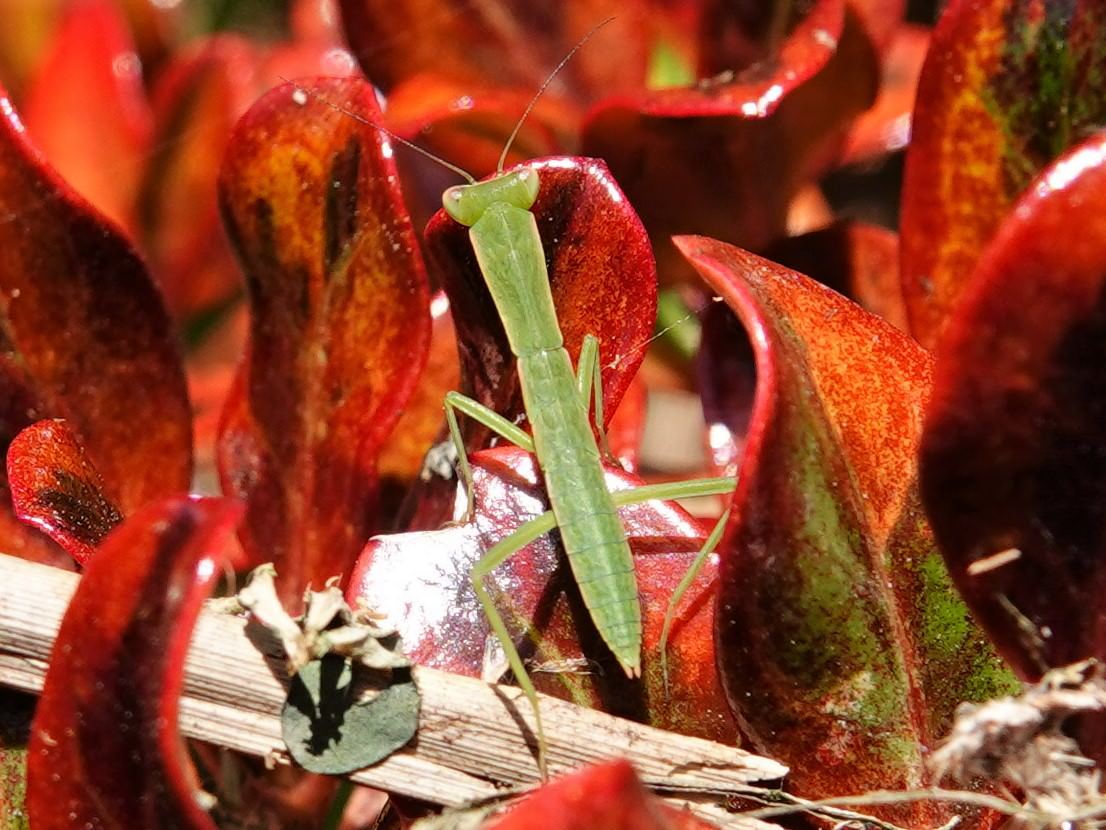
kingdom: Animalia
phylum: Arthropoda
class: Insecta
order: Mantodea
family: Mantidae
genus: Orthodera
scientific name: Orthodera novaezealandiae
